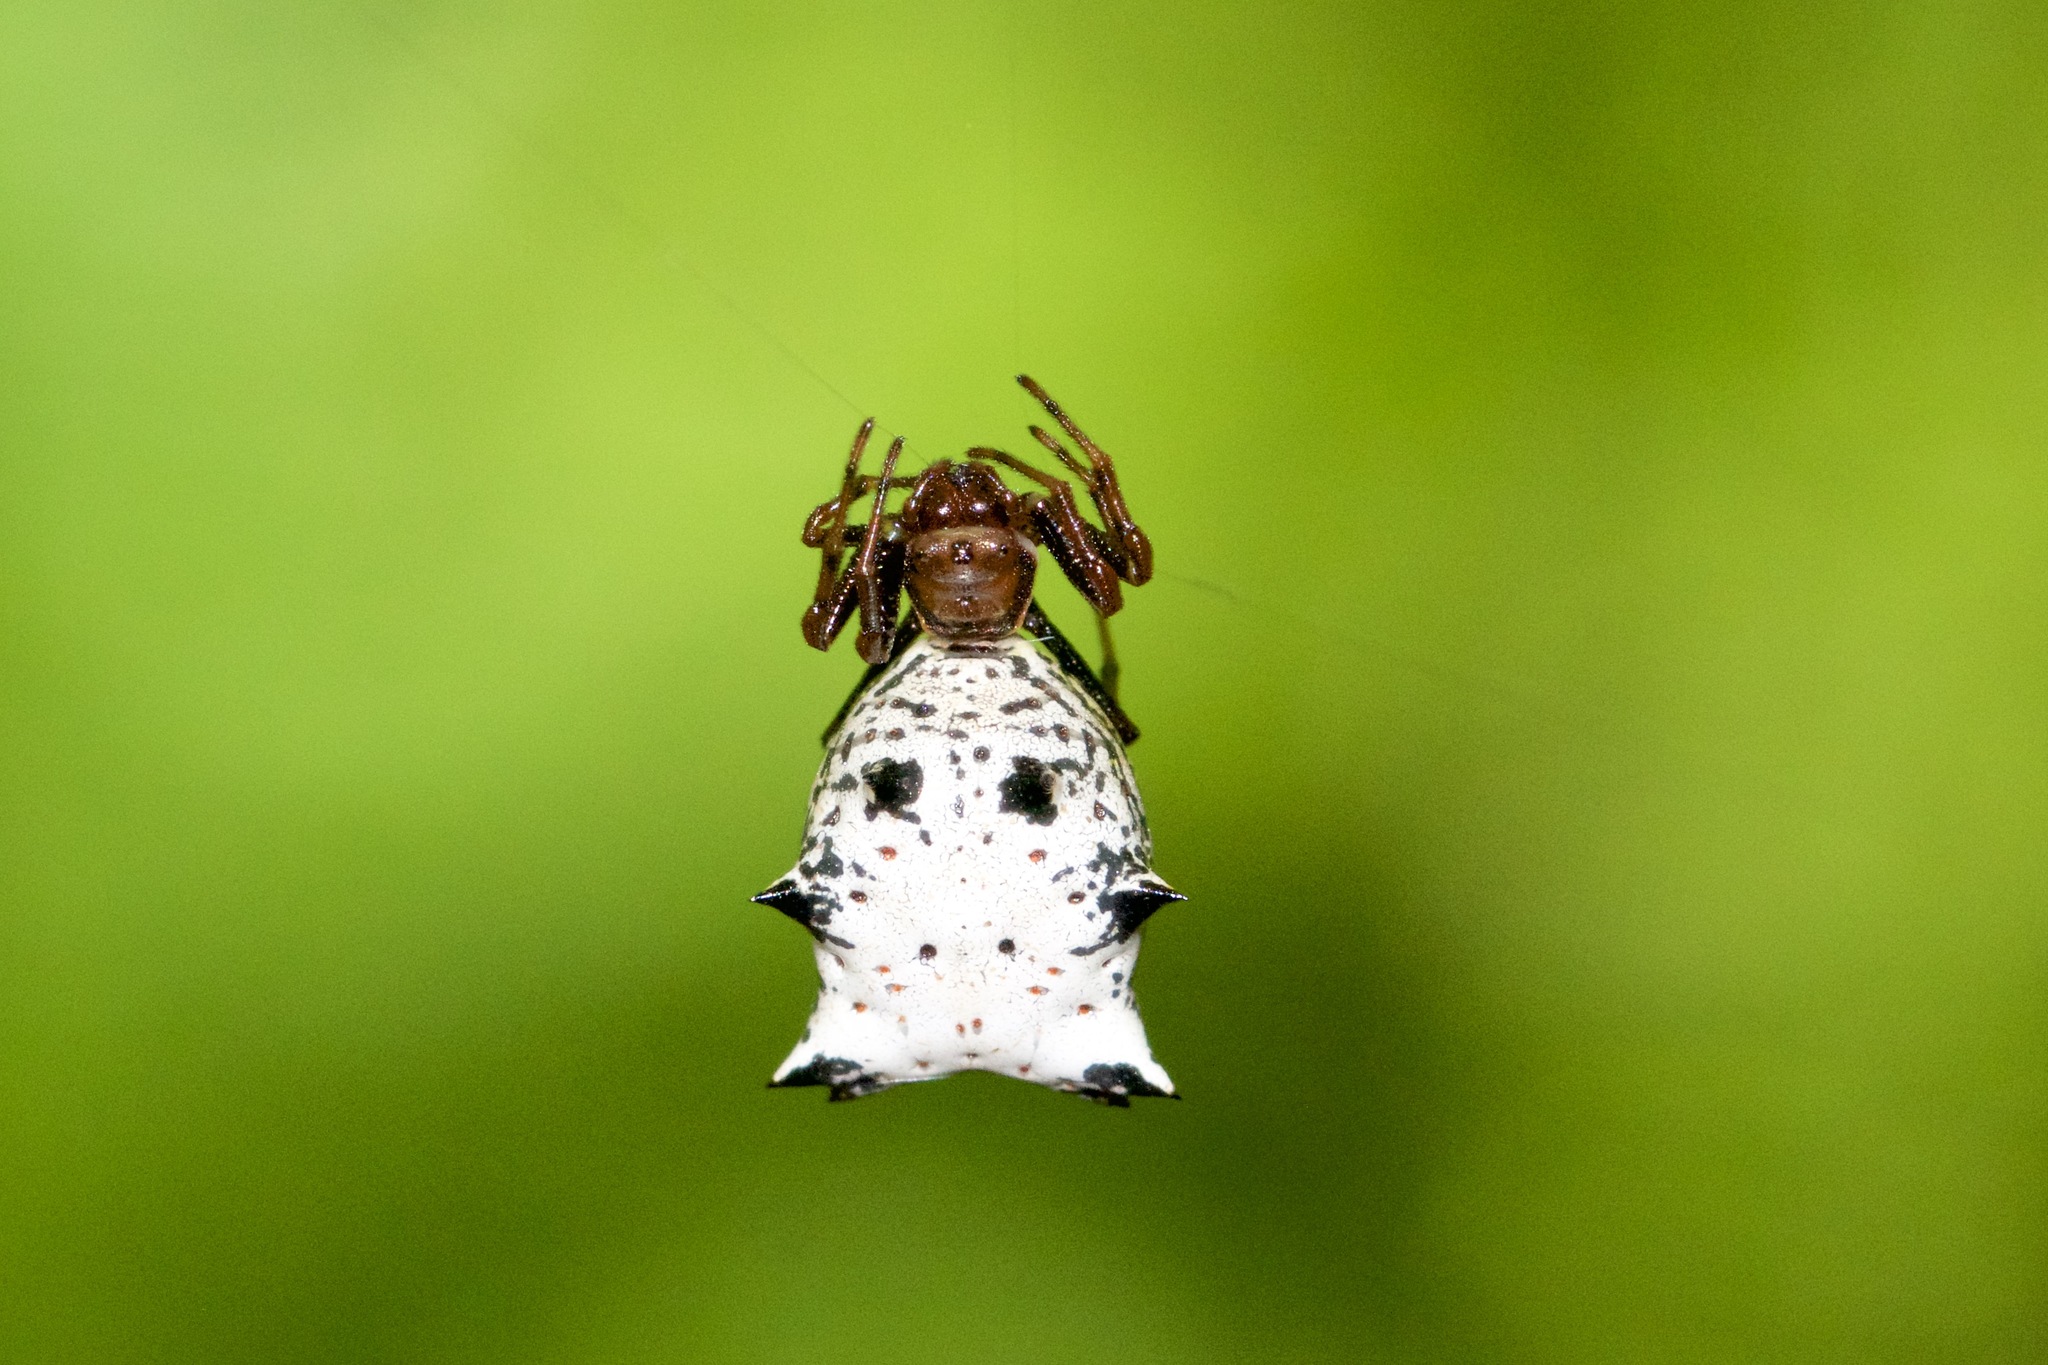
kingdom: Animalia
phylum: Arthropoda
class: Arachnida
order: Araneae
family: Araneidae
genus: Micrathena
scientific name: Micrathena gracilis
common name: Orb weavers
